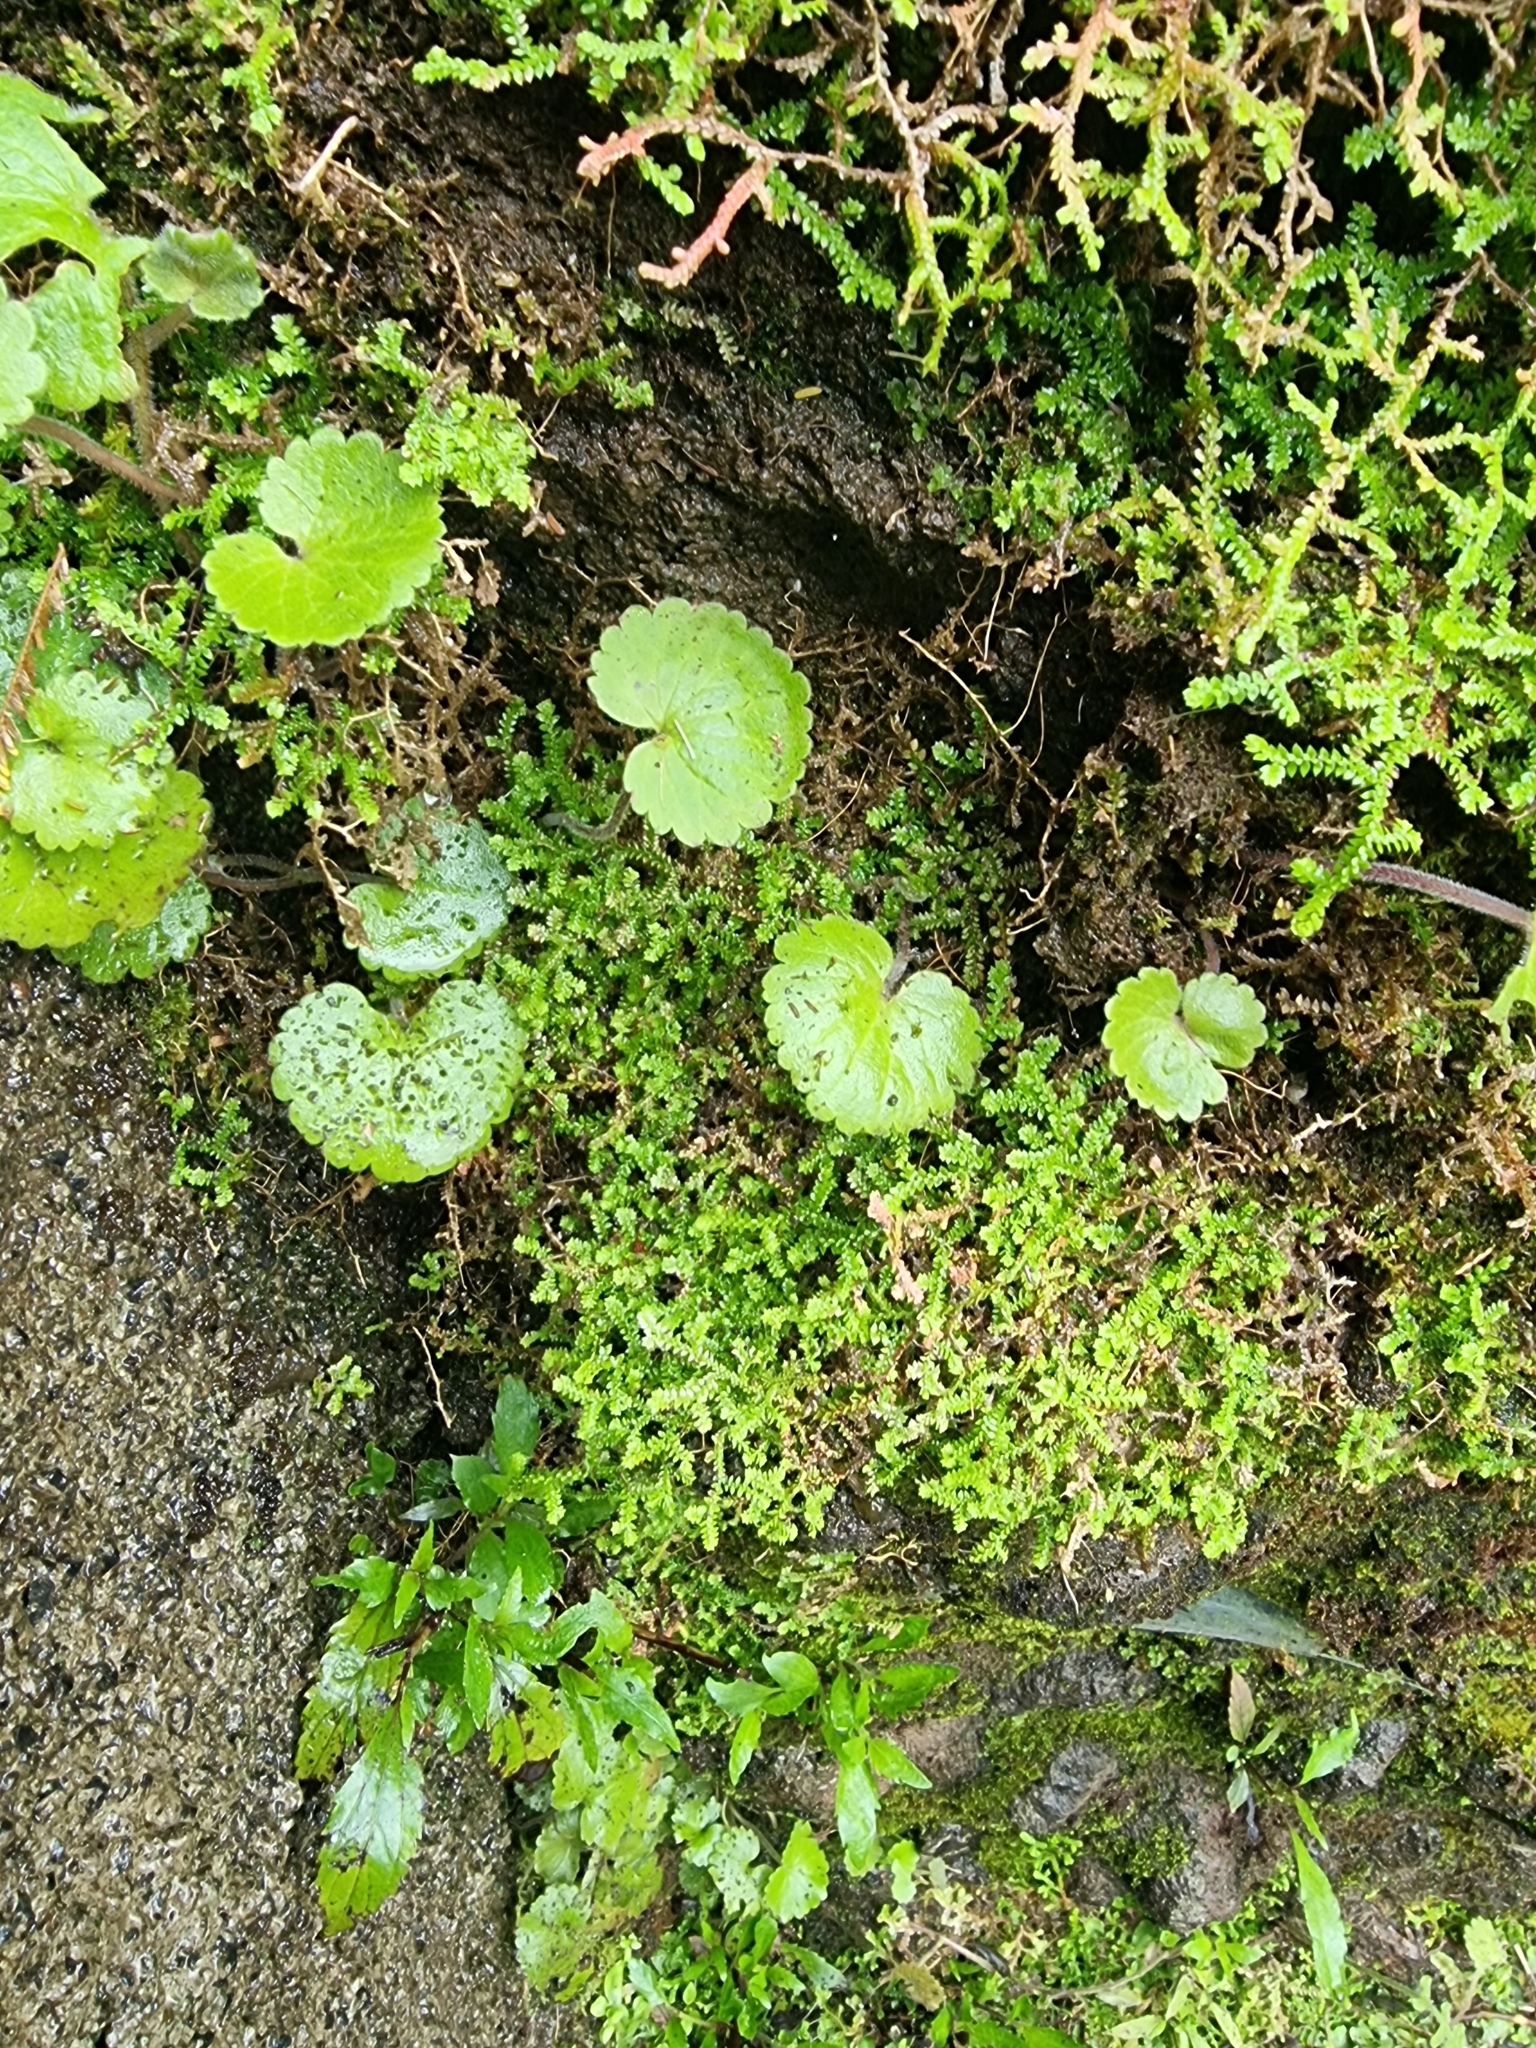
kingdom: Plantae
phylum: Tracheophyta
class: Magnoliopsida
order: Lamiales
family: Plantaginaceae
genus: Sibthorpia
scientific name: Sibthorpia peregrina
